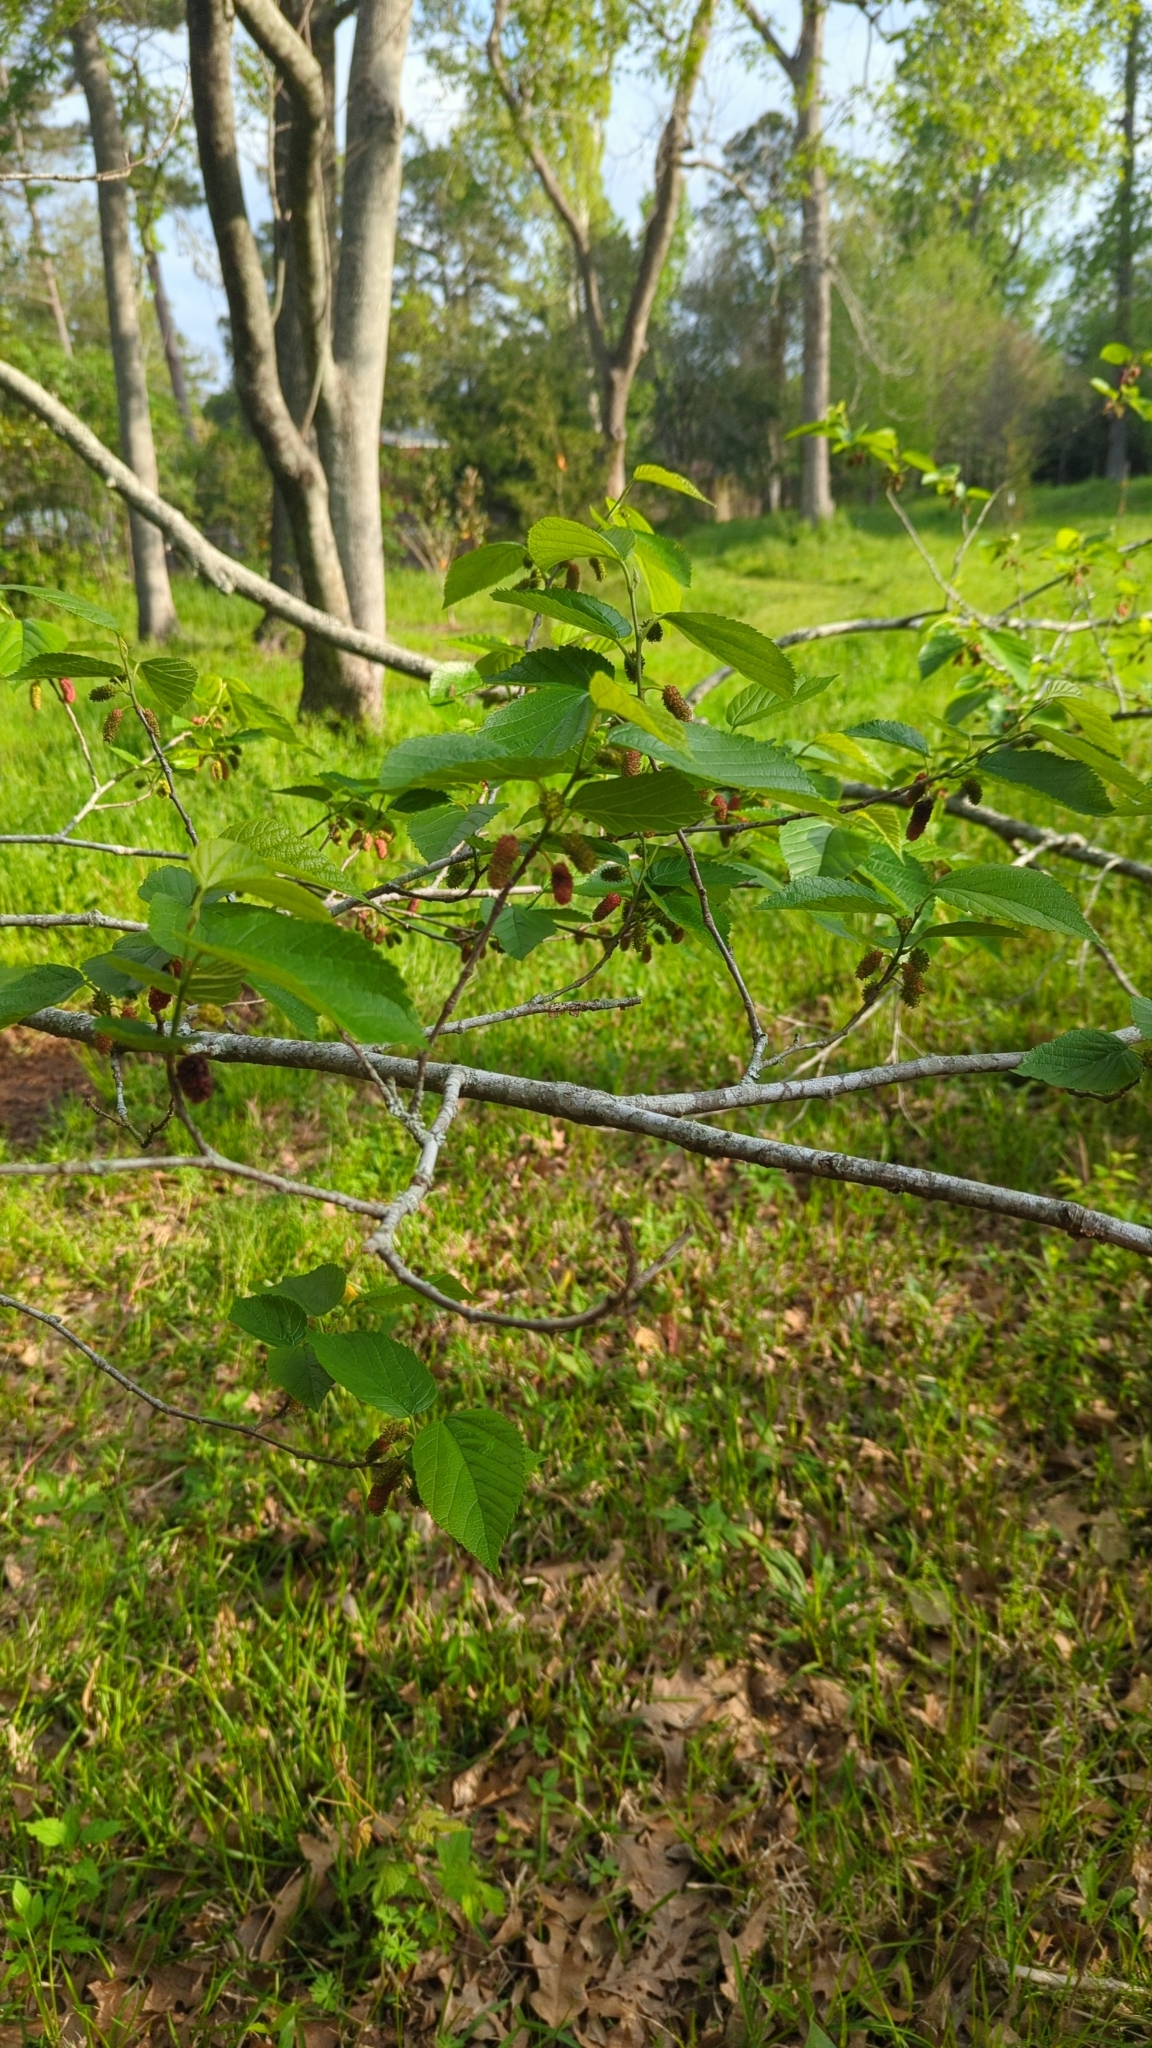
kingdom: Plantae
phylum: Tracheophyta
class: Magnoliopsida
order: Rosales
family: Moraceae
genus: Morus
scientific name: Morus rubra
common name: Red mulberry
